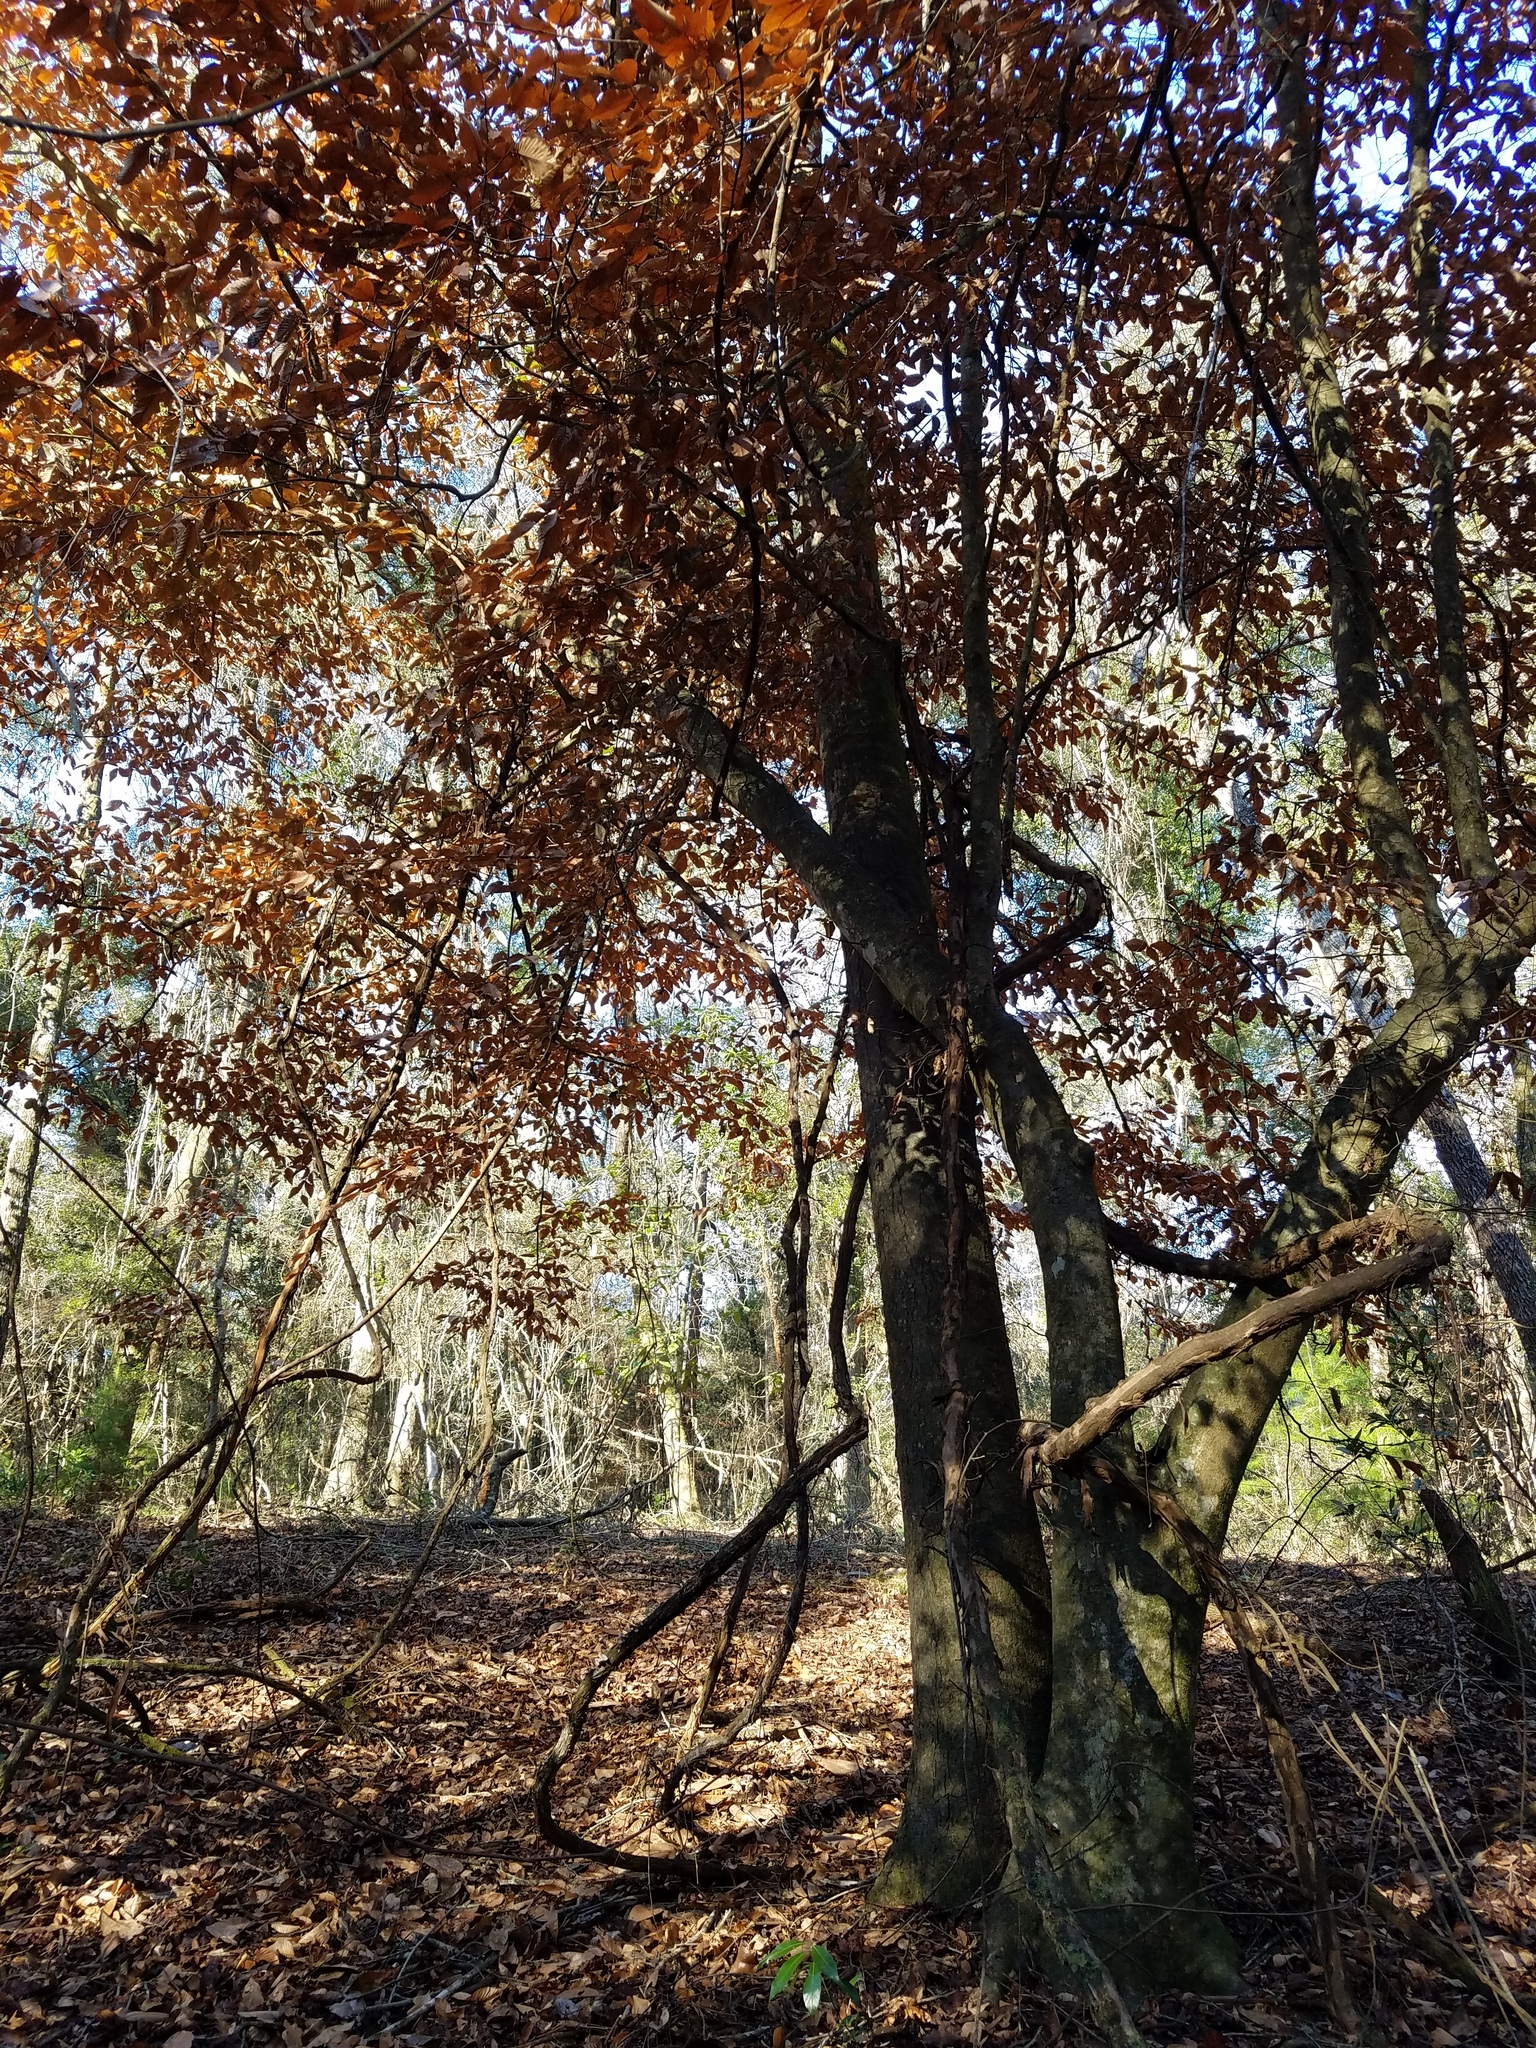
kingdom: Plantae
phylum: Tracheophyta
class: Magnoliopsida
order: Fagales
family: Fagaceae
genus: Fagus
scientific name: Fagus grandifolia
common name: American beech
